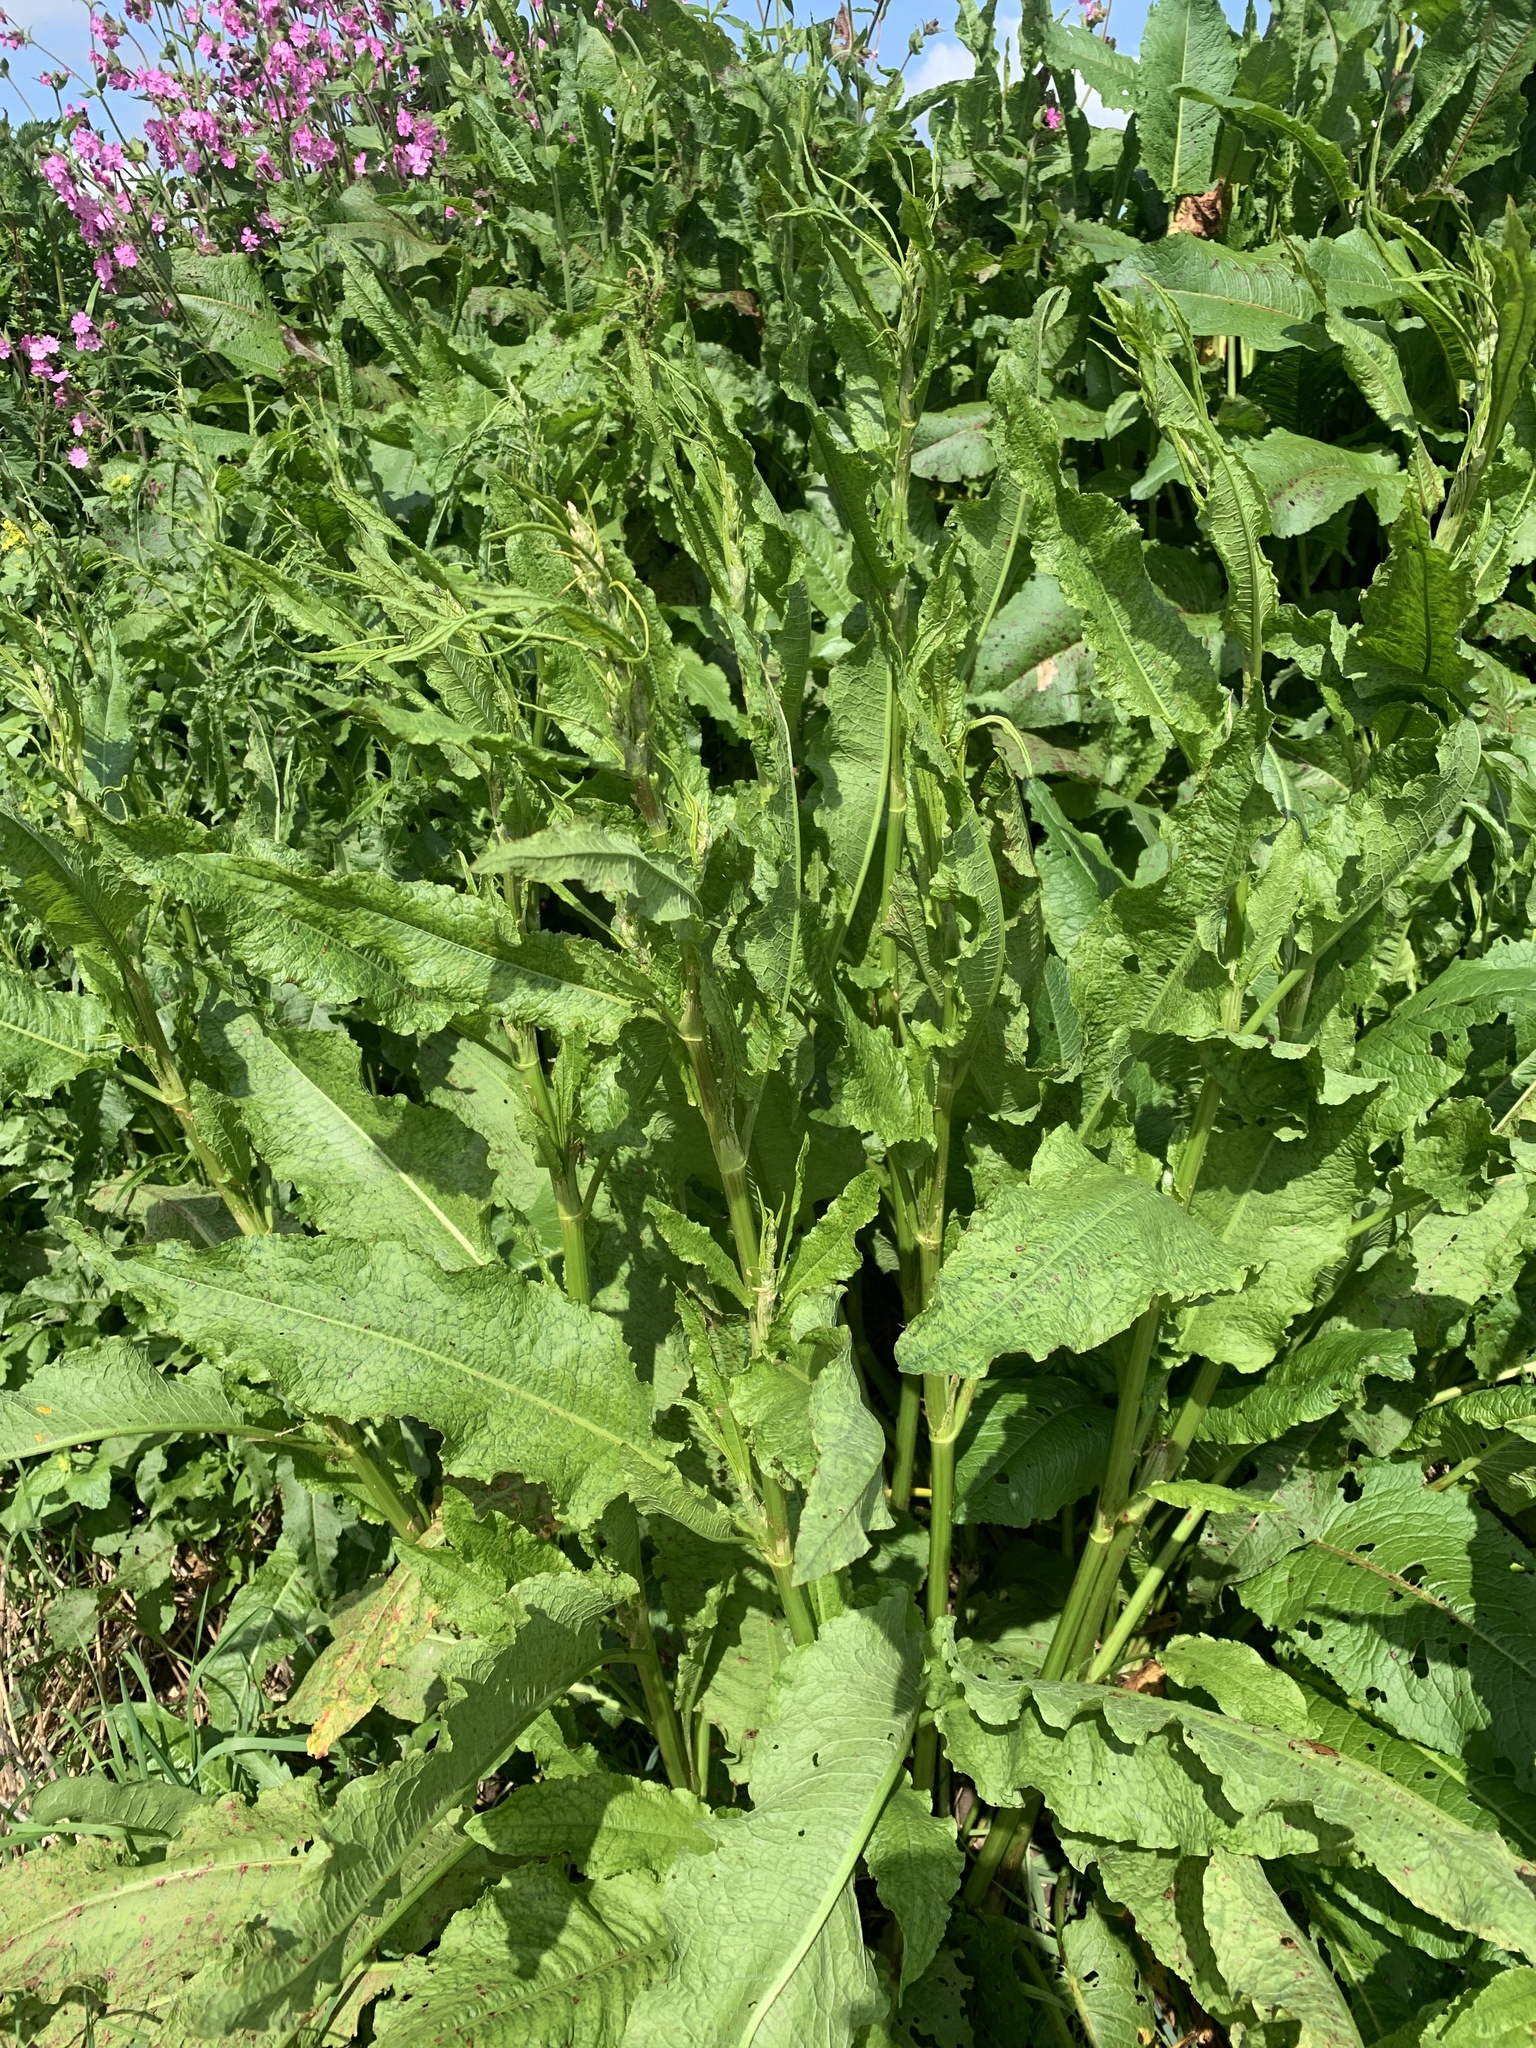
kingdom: Plantae
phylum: Tracheophyta
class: Magnoliopsida
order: Caryophyllales
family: Polygonaceae
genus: Rumex
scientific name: Rumex obtusifolius
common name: Bitter dock
